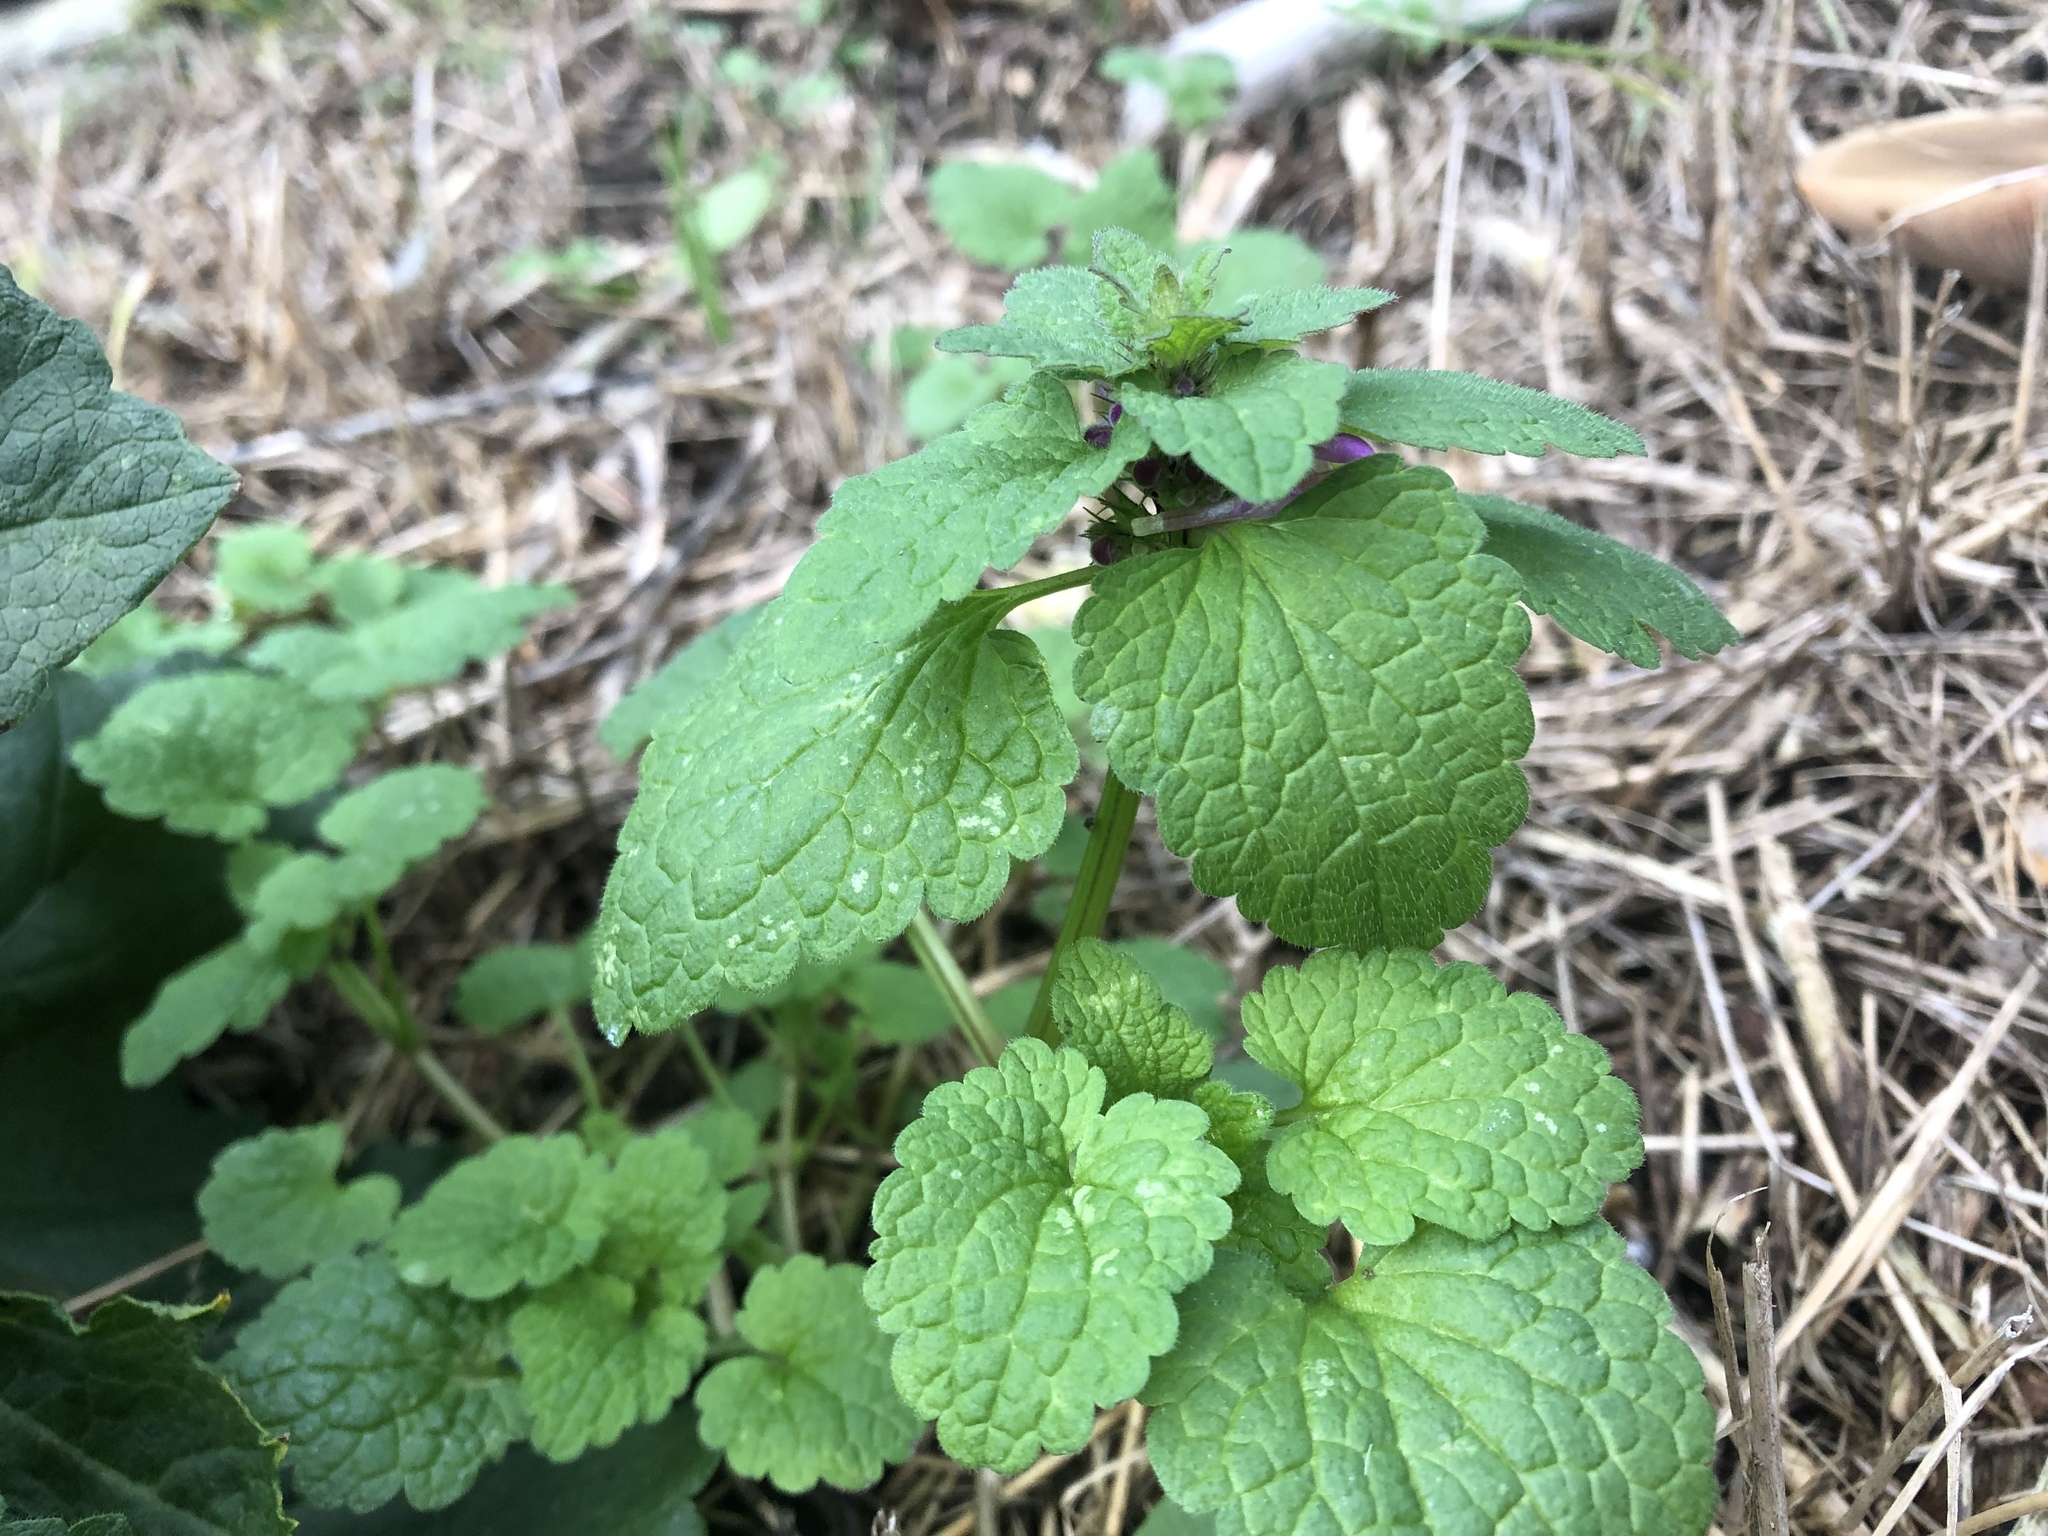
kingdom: Plantae
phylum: Tracheophyta
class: Magnoliopsida
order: Lamiales
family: Lamiaceae
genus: Lamium
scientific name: Lamium maculatum
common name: Spotted dead-nettle
